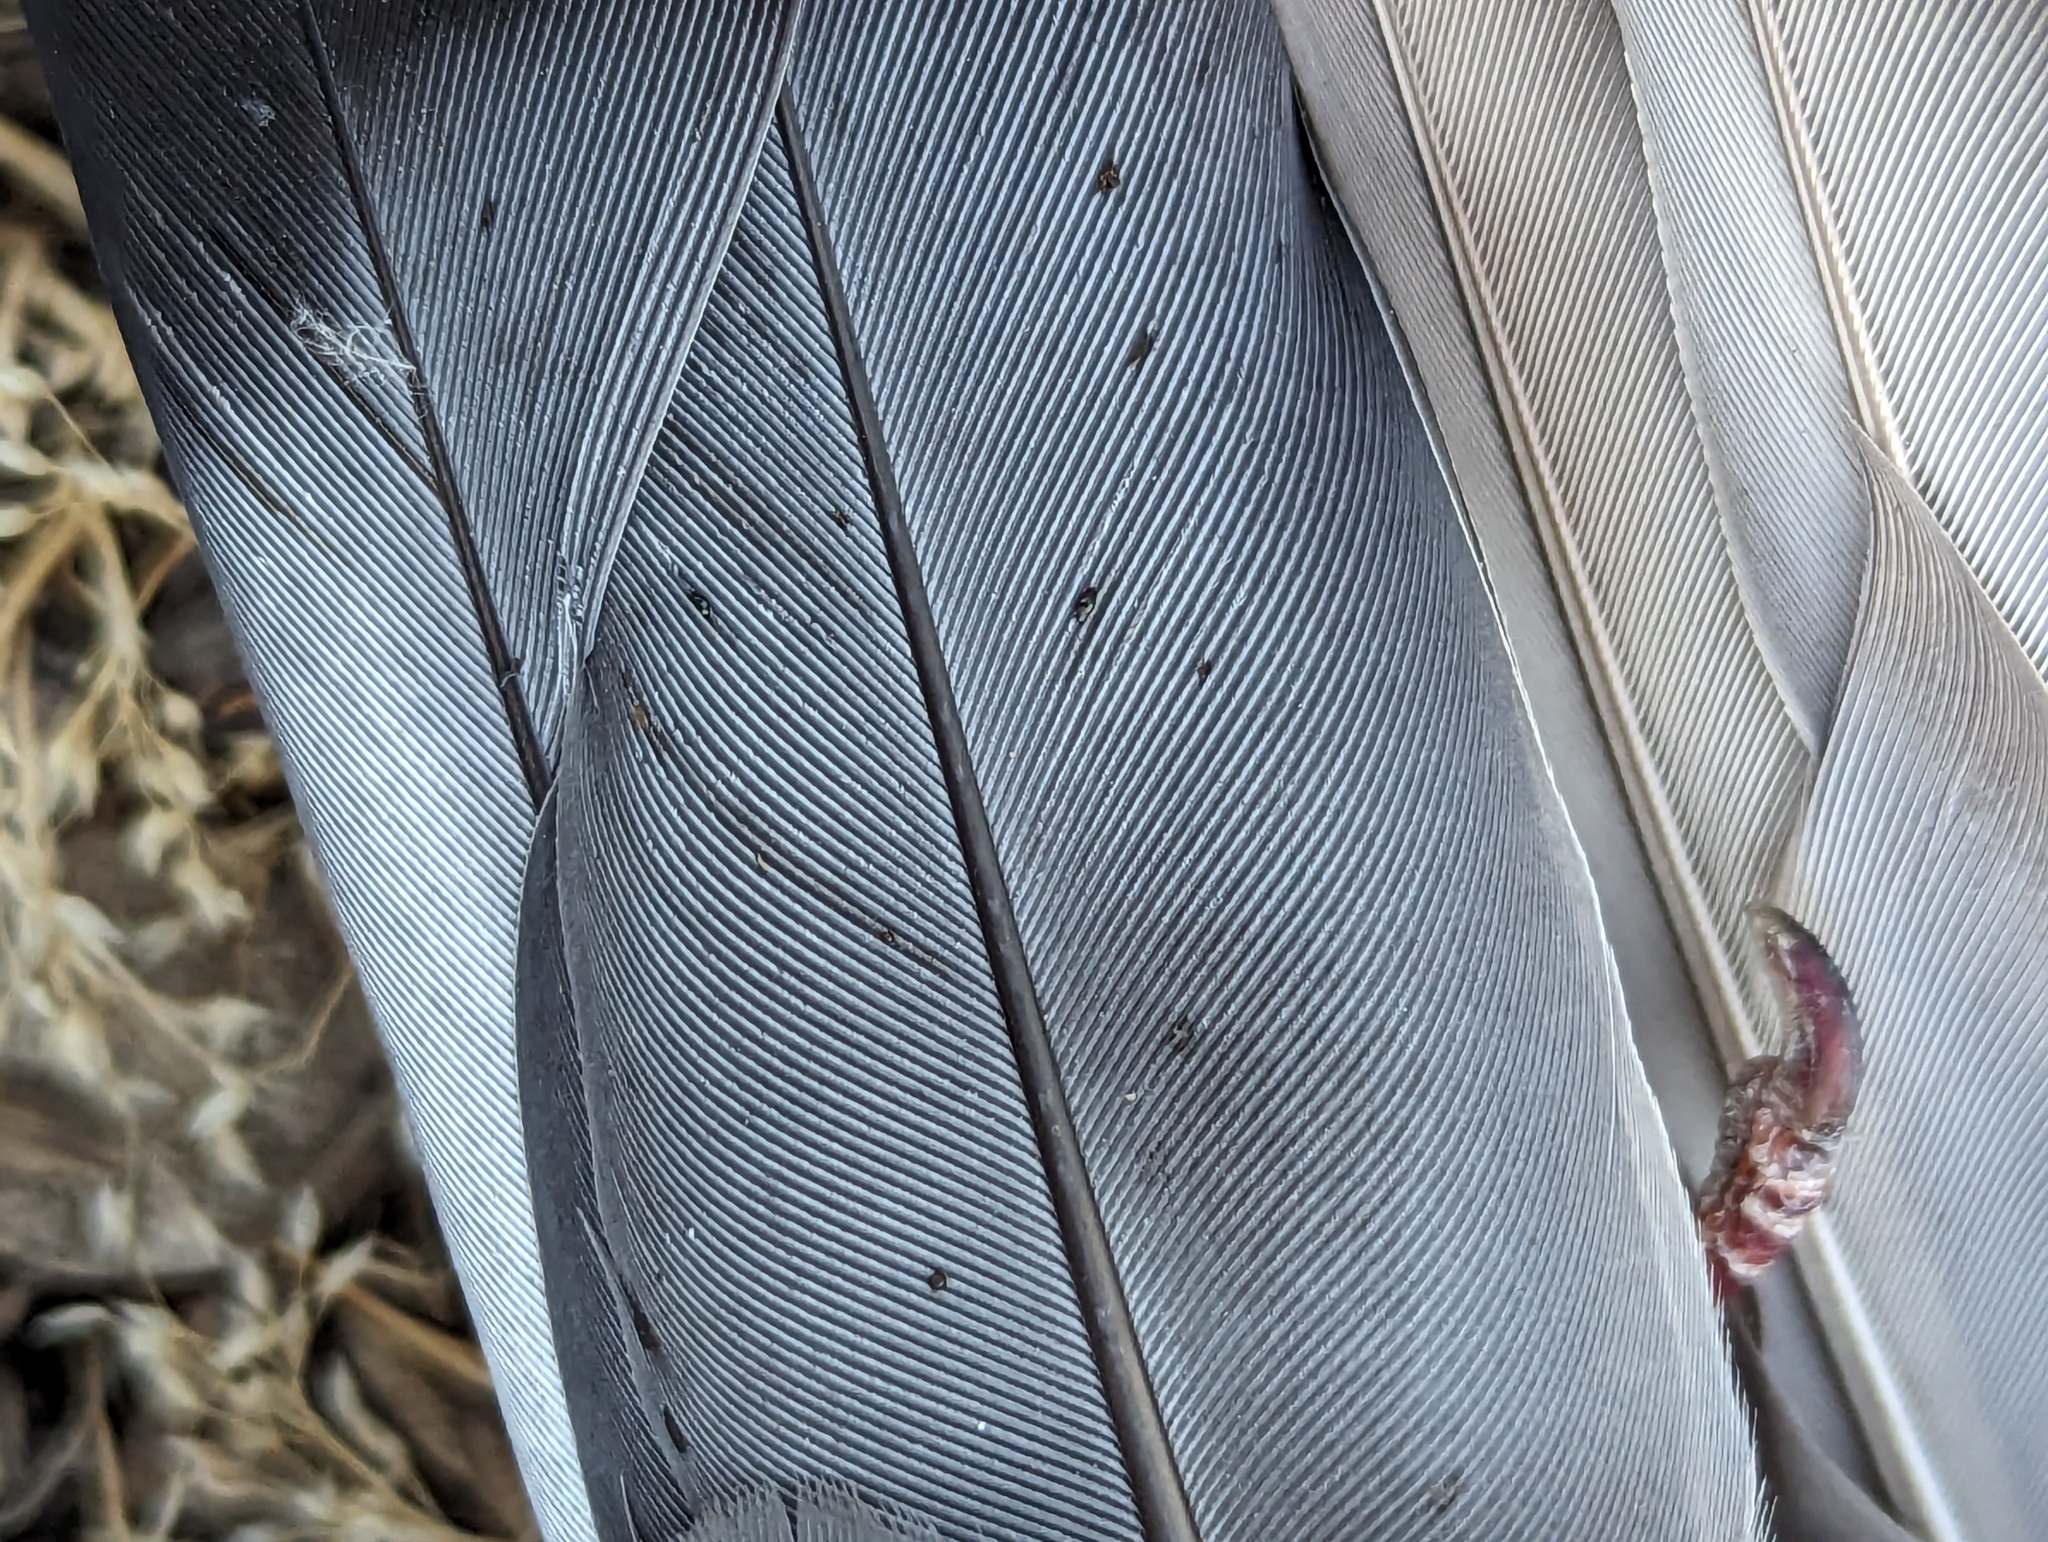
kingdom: Animalia
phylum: Chordata
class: Aves
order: Columbiformes
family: Columbidae
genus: Columba
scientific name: Columba livia
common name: Rock pigeon
